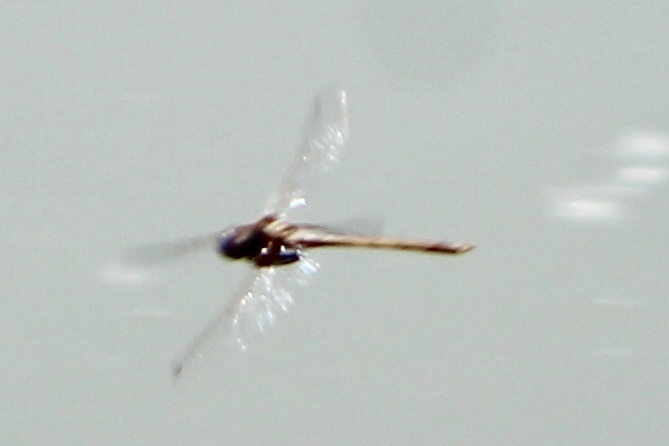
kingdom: Animalia
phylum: Arthropoda
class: Insecta
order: Odonata
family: Libellulidae
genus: Macrothemis
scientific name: Macrothemis inacuta
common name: Straw-colored sylph
